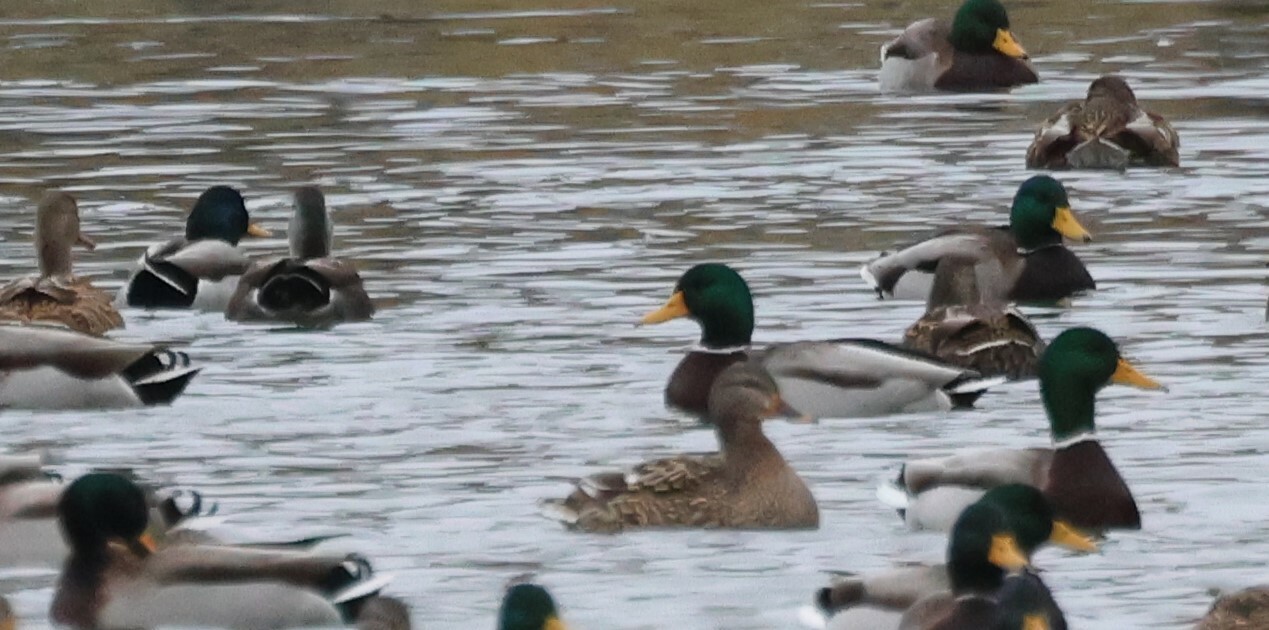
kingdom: Animalia
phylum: Chordata
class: Aves
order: Anseriformes
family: Anatidae
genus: Anas
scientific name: Anas platyrhynchos
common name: Mallard
